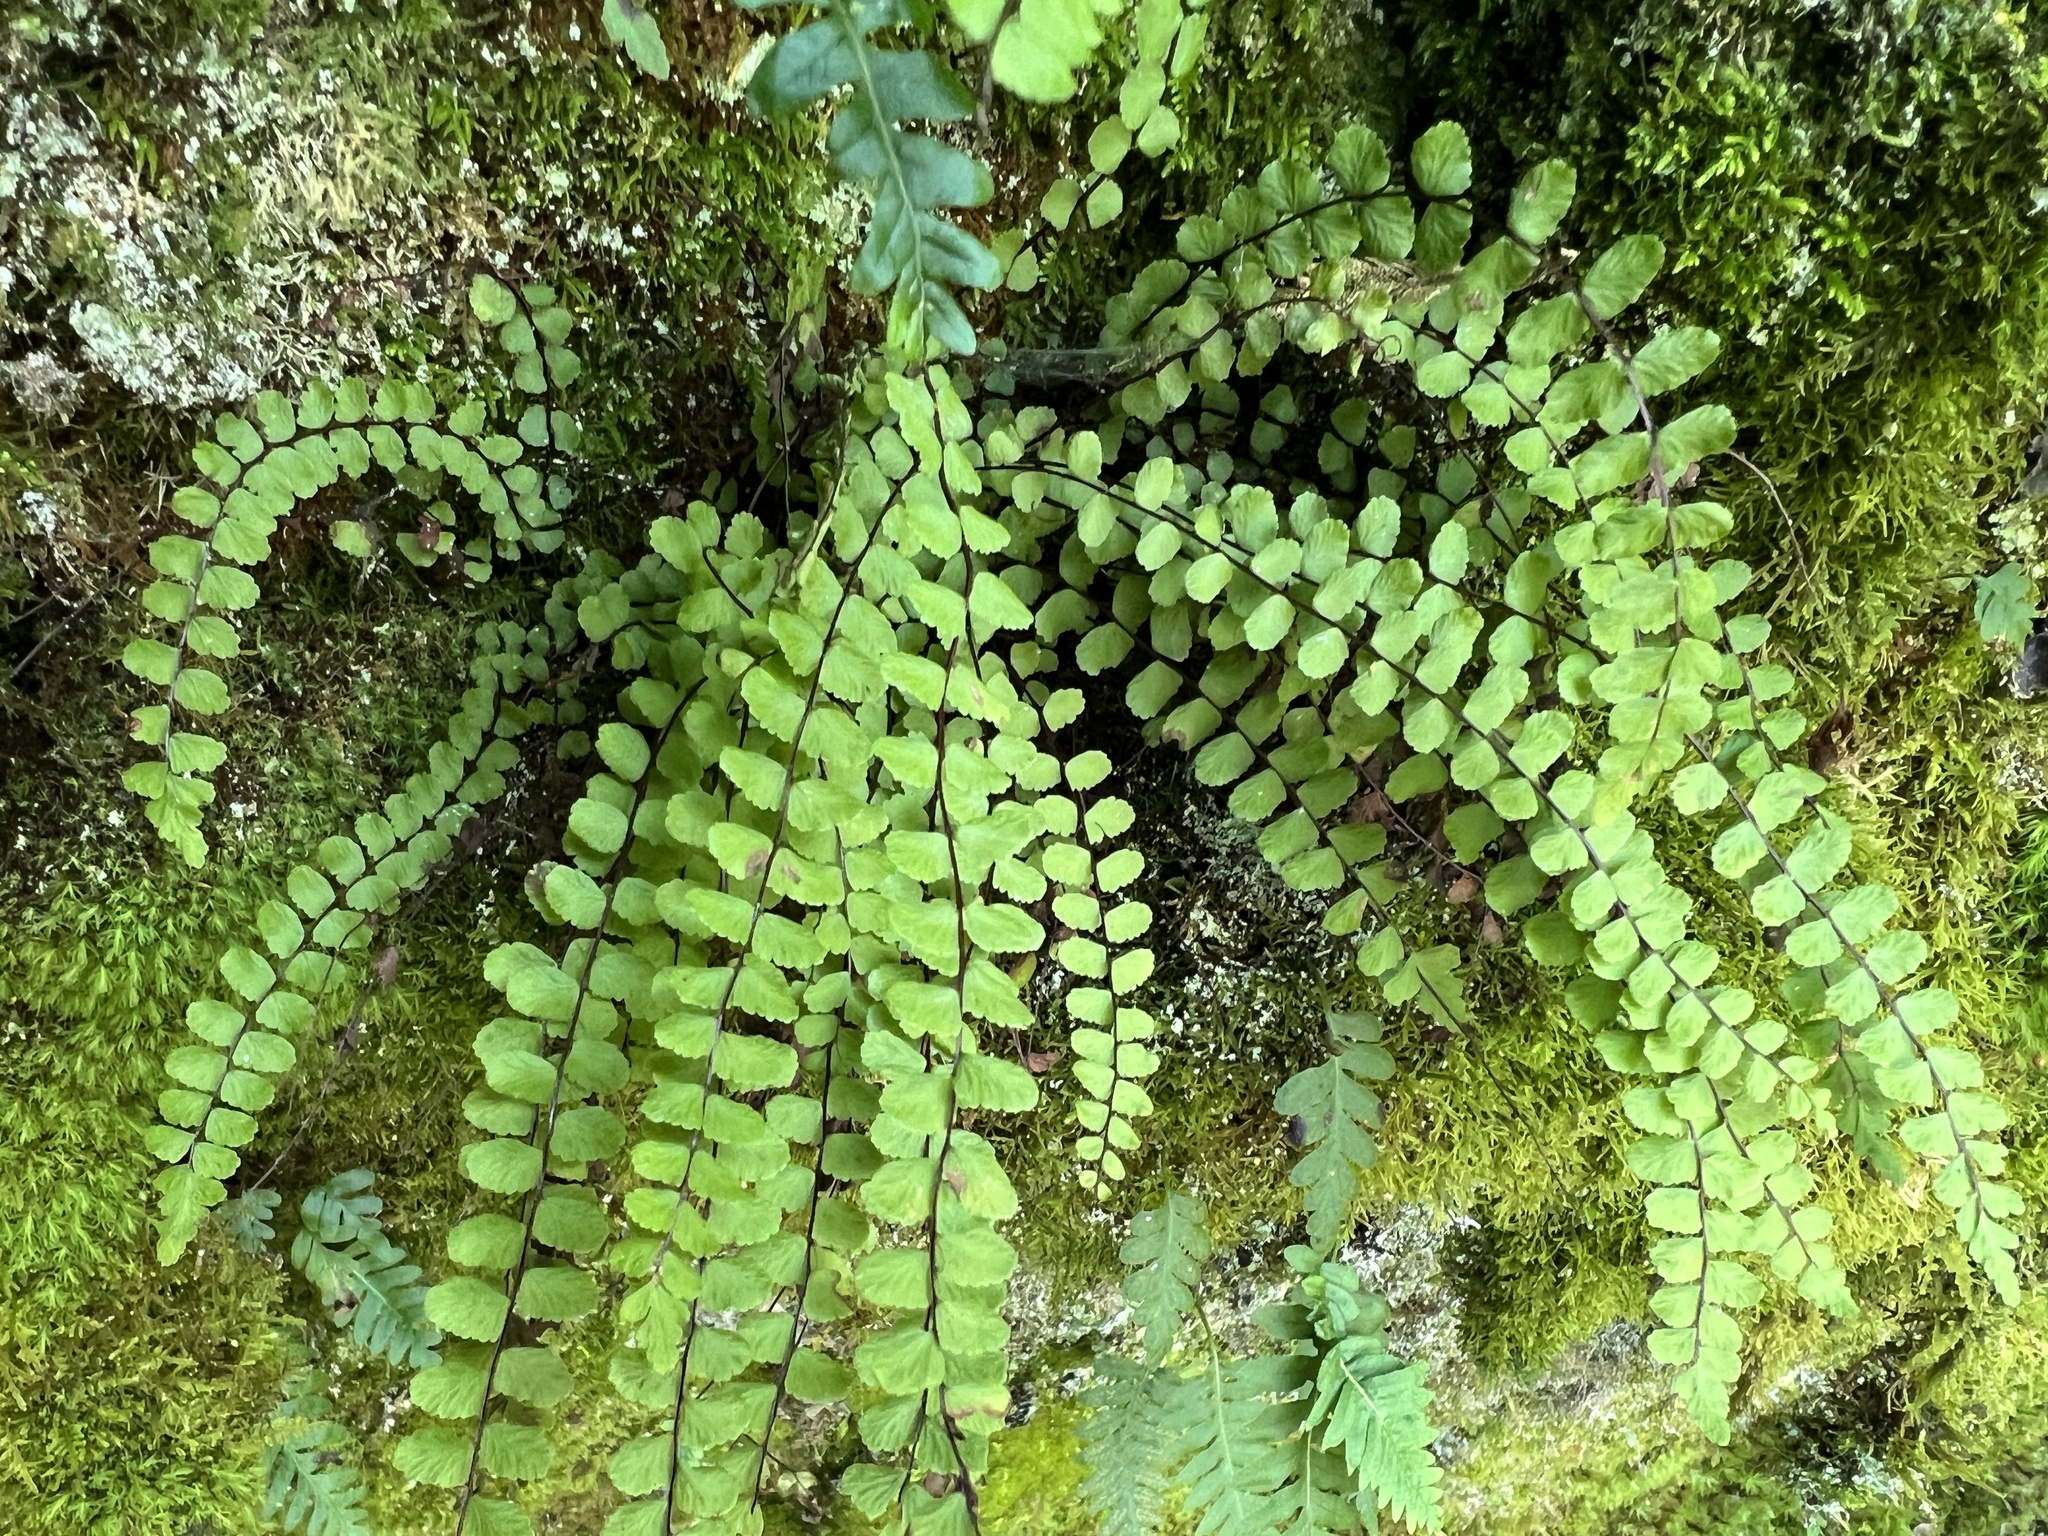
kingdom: Plantae
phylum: Tracheophyta
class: Polypodiopsida
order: Polypodiales
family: Aspleniaceae
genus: Asplenium
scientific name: Asplenium trichomanes
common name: Maidenhair spleenwort
